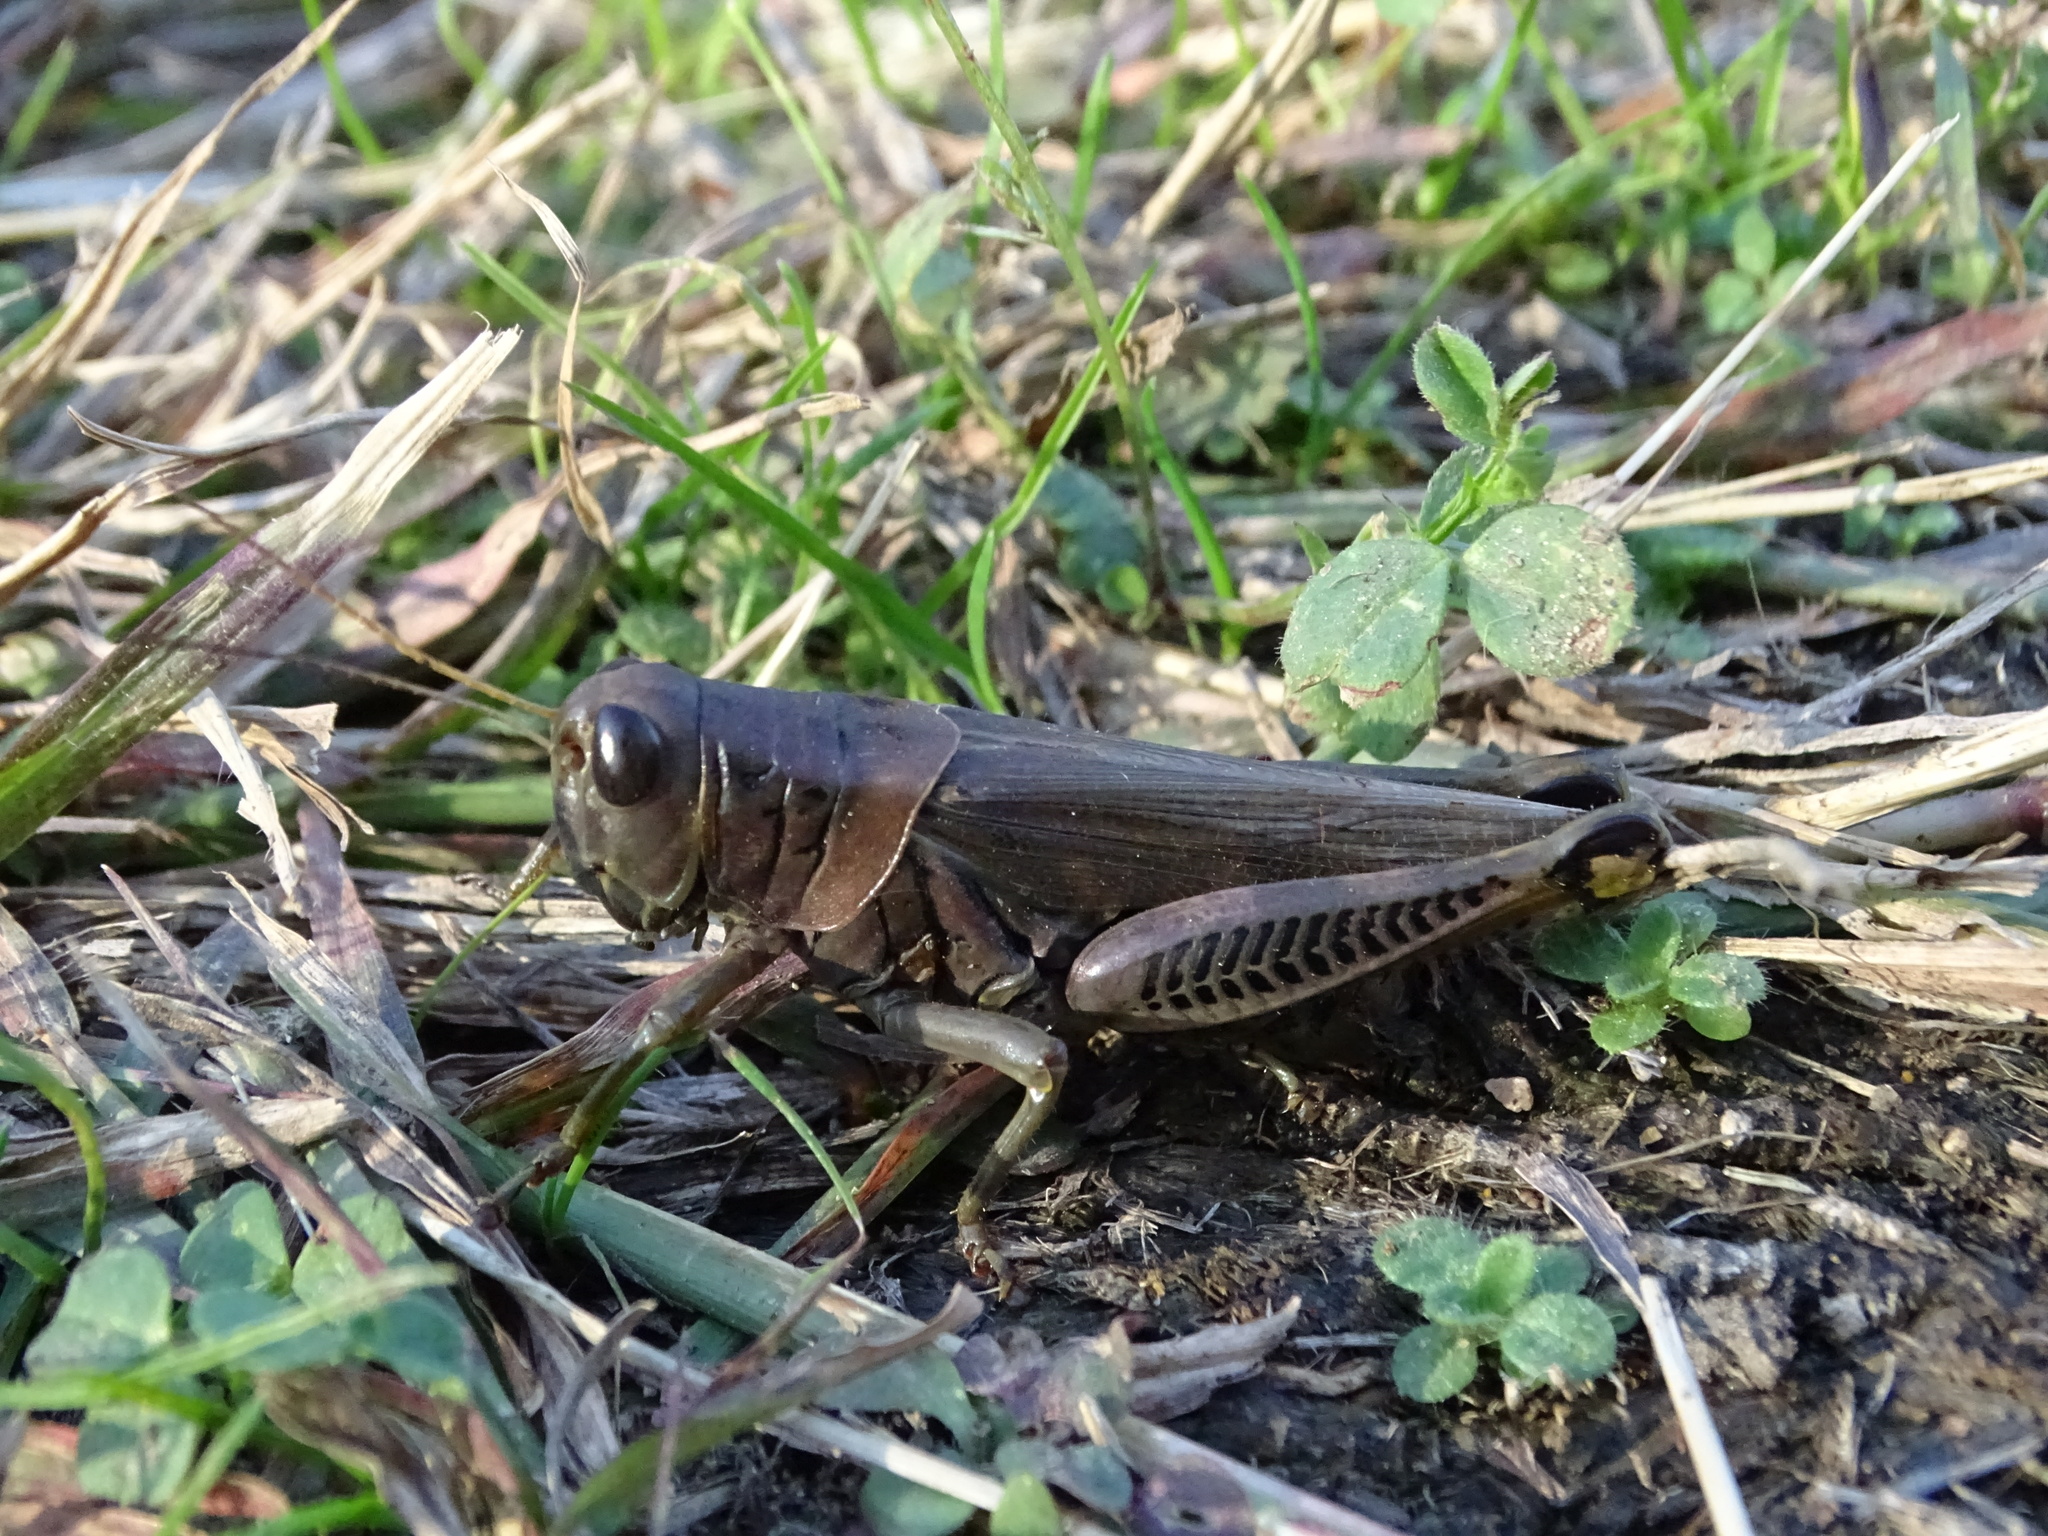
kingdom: Animalia
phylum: Arthropoda
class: Insecta
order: Orthoptera
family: Acrididae
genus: Melanoplus
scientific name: Melanoplus differentialis
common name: Differential grasshopper
